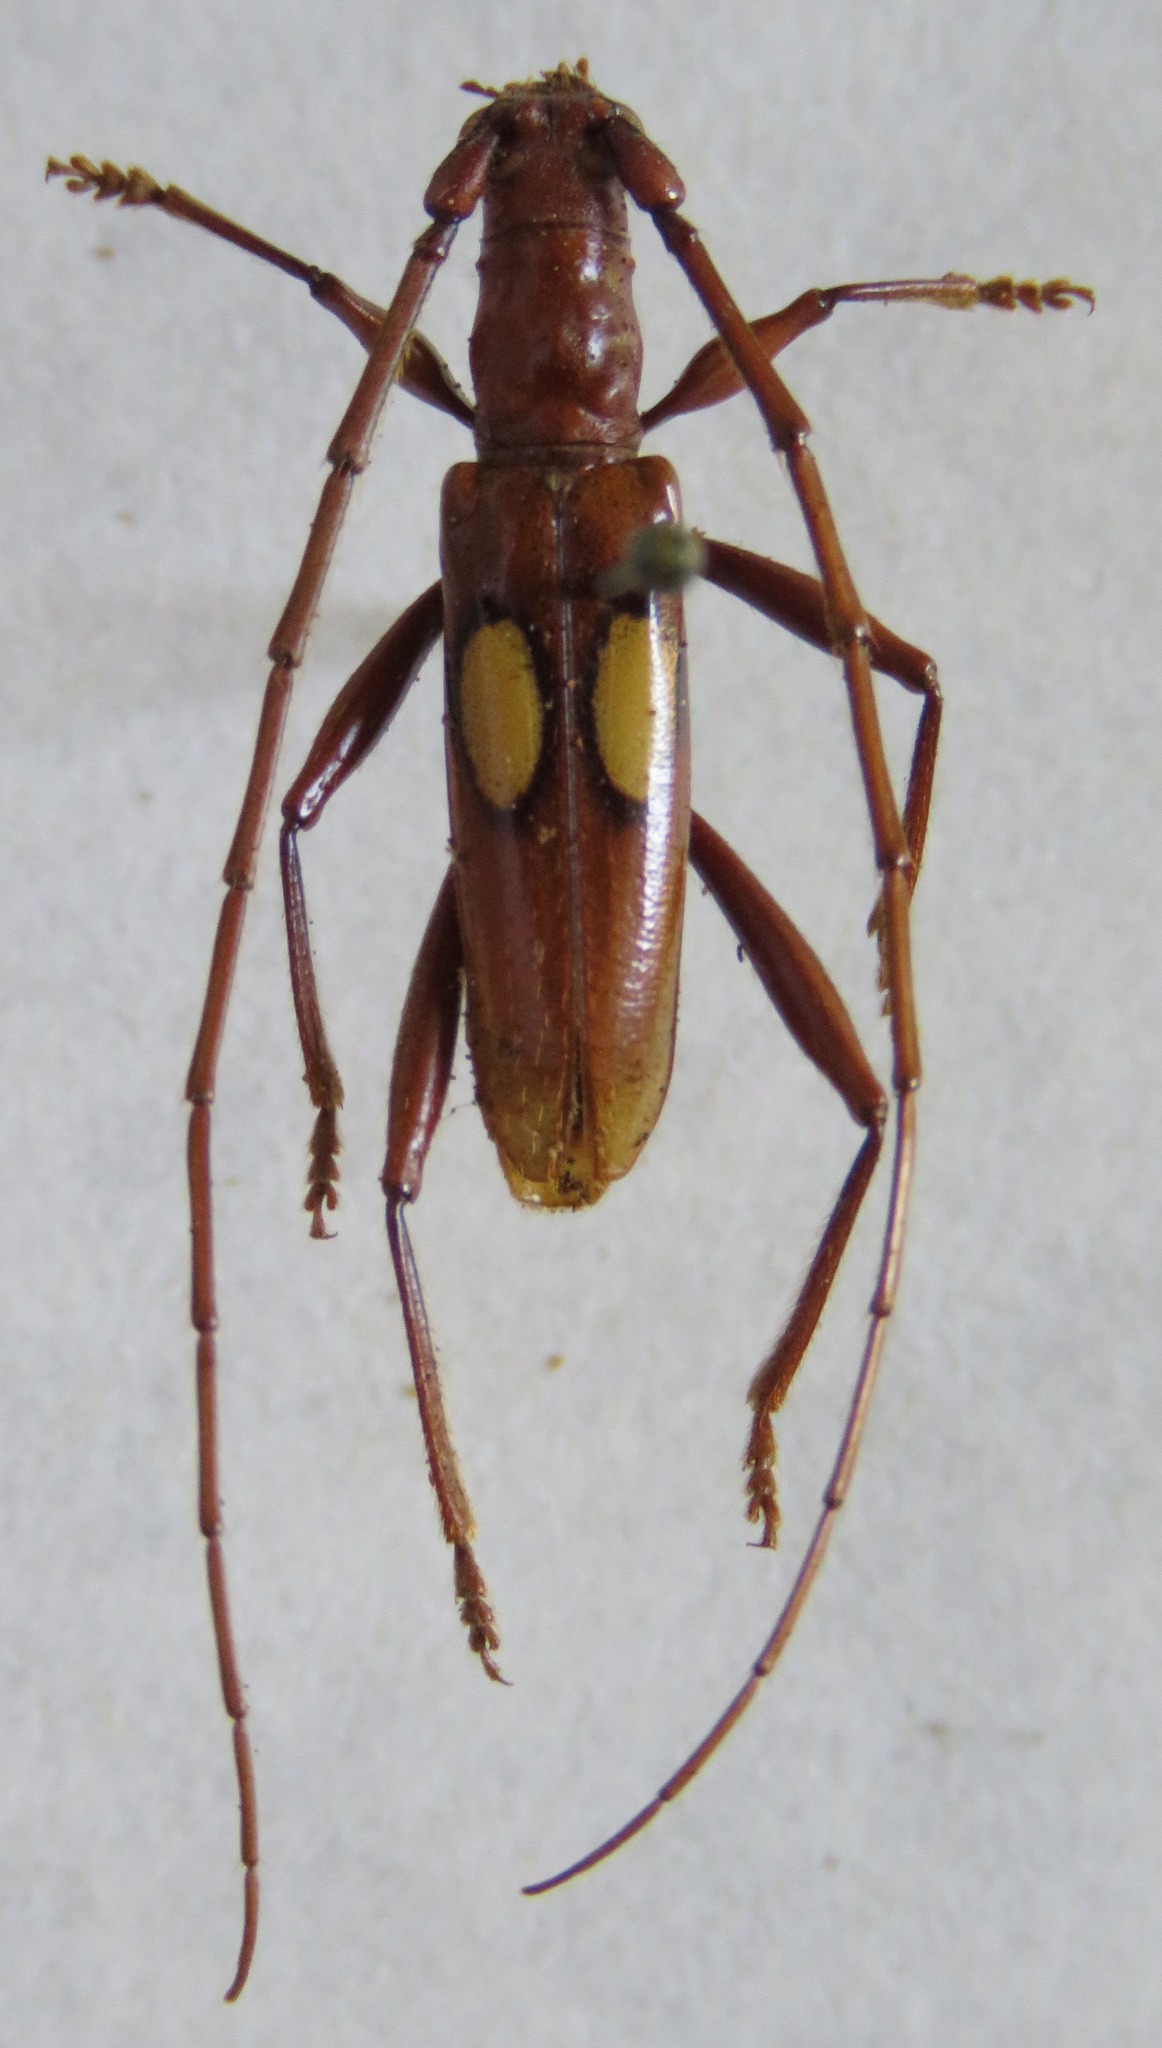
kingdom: Animalia
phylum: Arthropoda
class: Insecta
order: Coleoptera
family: Cerambycidae
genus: Diasporidion
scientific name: Diasporidion duplicatum
